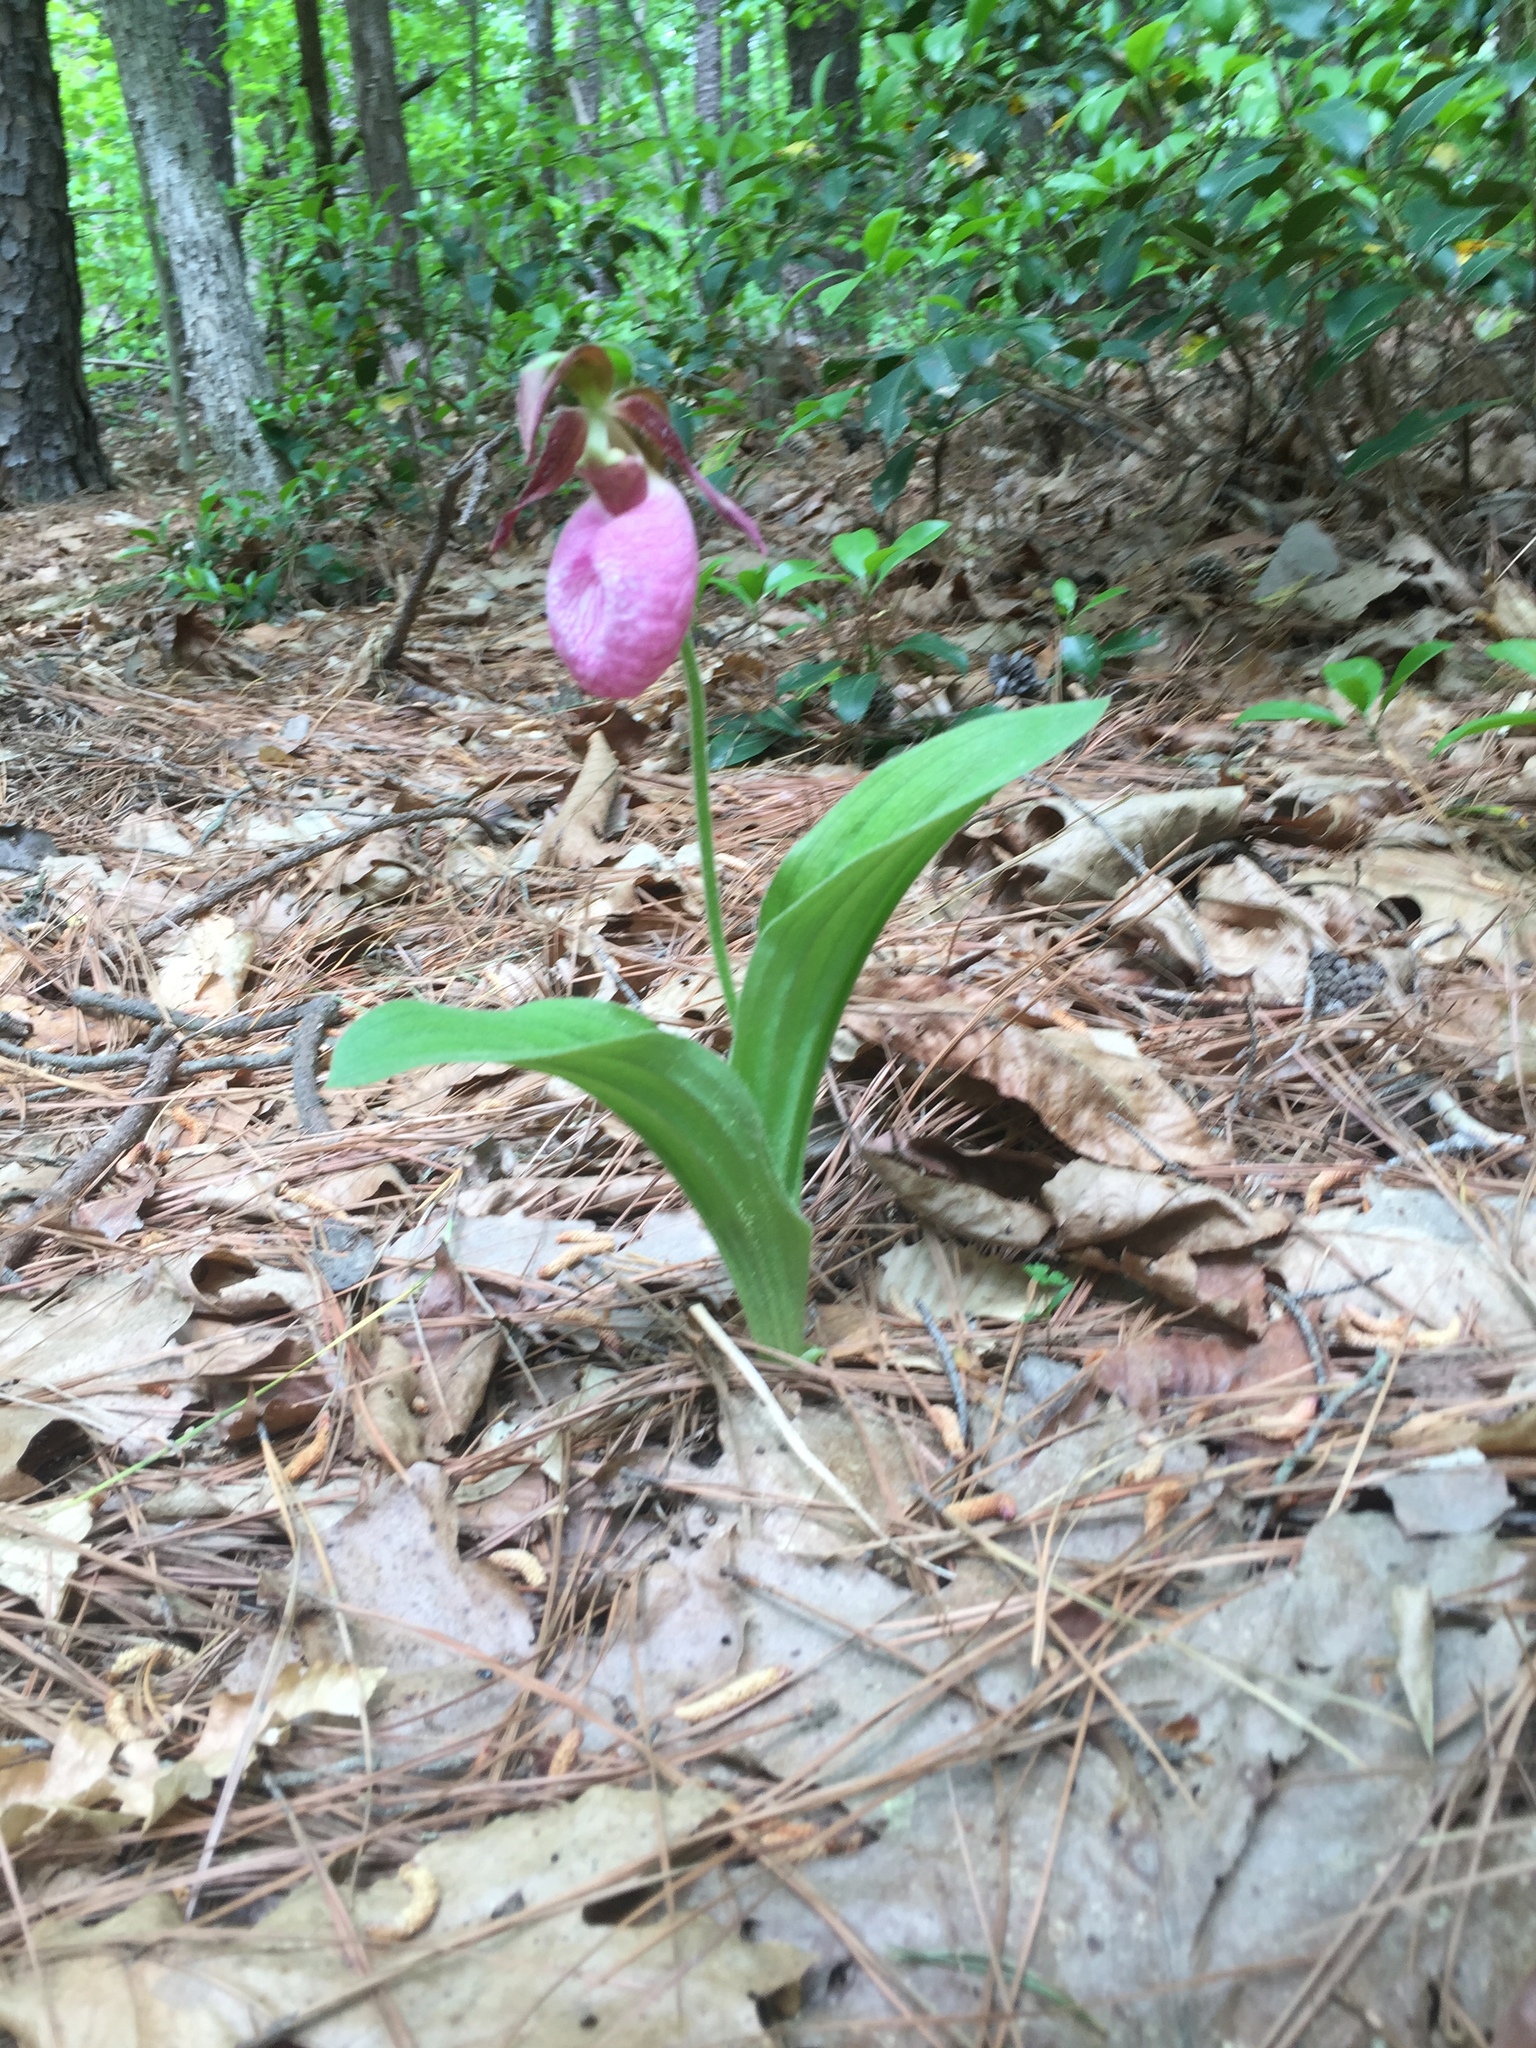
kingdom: Plantae
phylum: Tracheophyta
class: Liliopsida
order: Asparagales
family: Orchidaceae
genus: Cypripedium
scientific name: Cypripedium acaule
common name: Pink lady's-slipper
